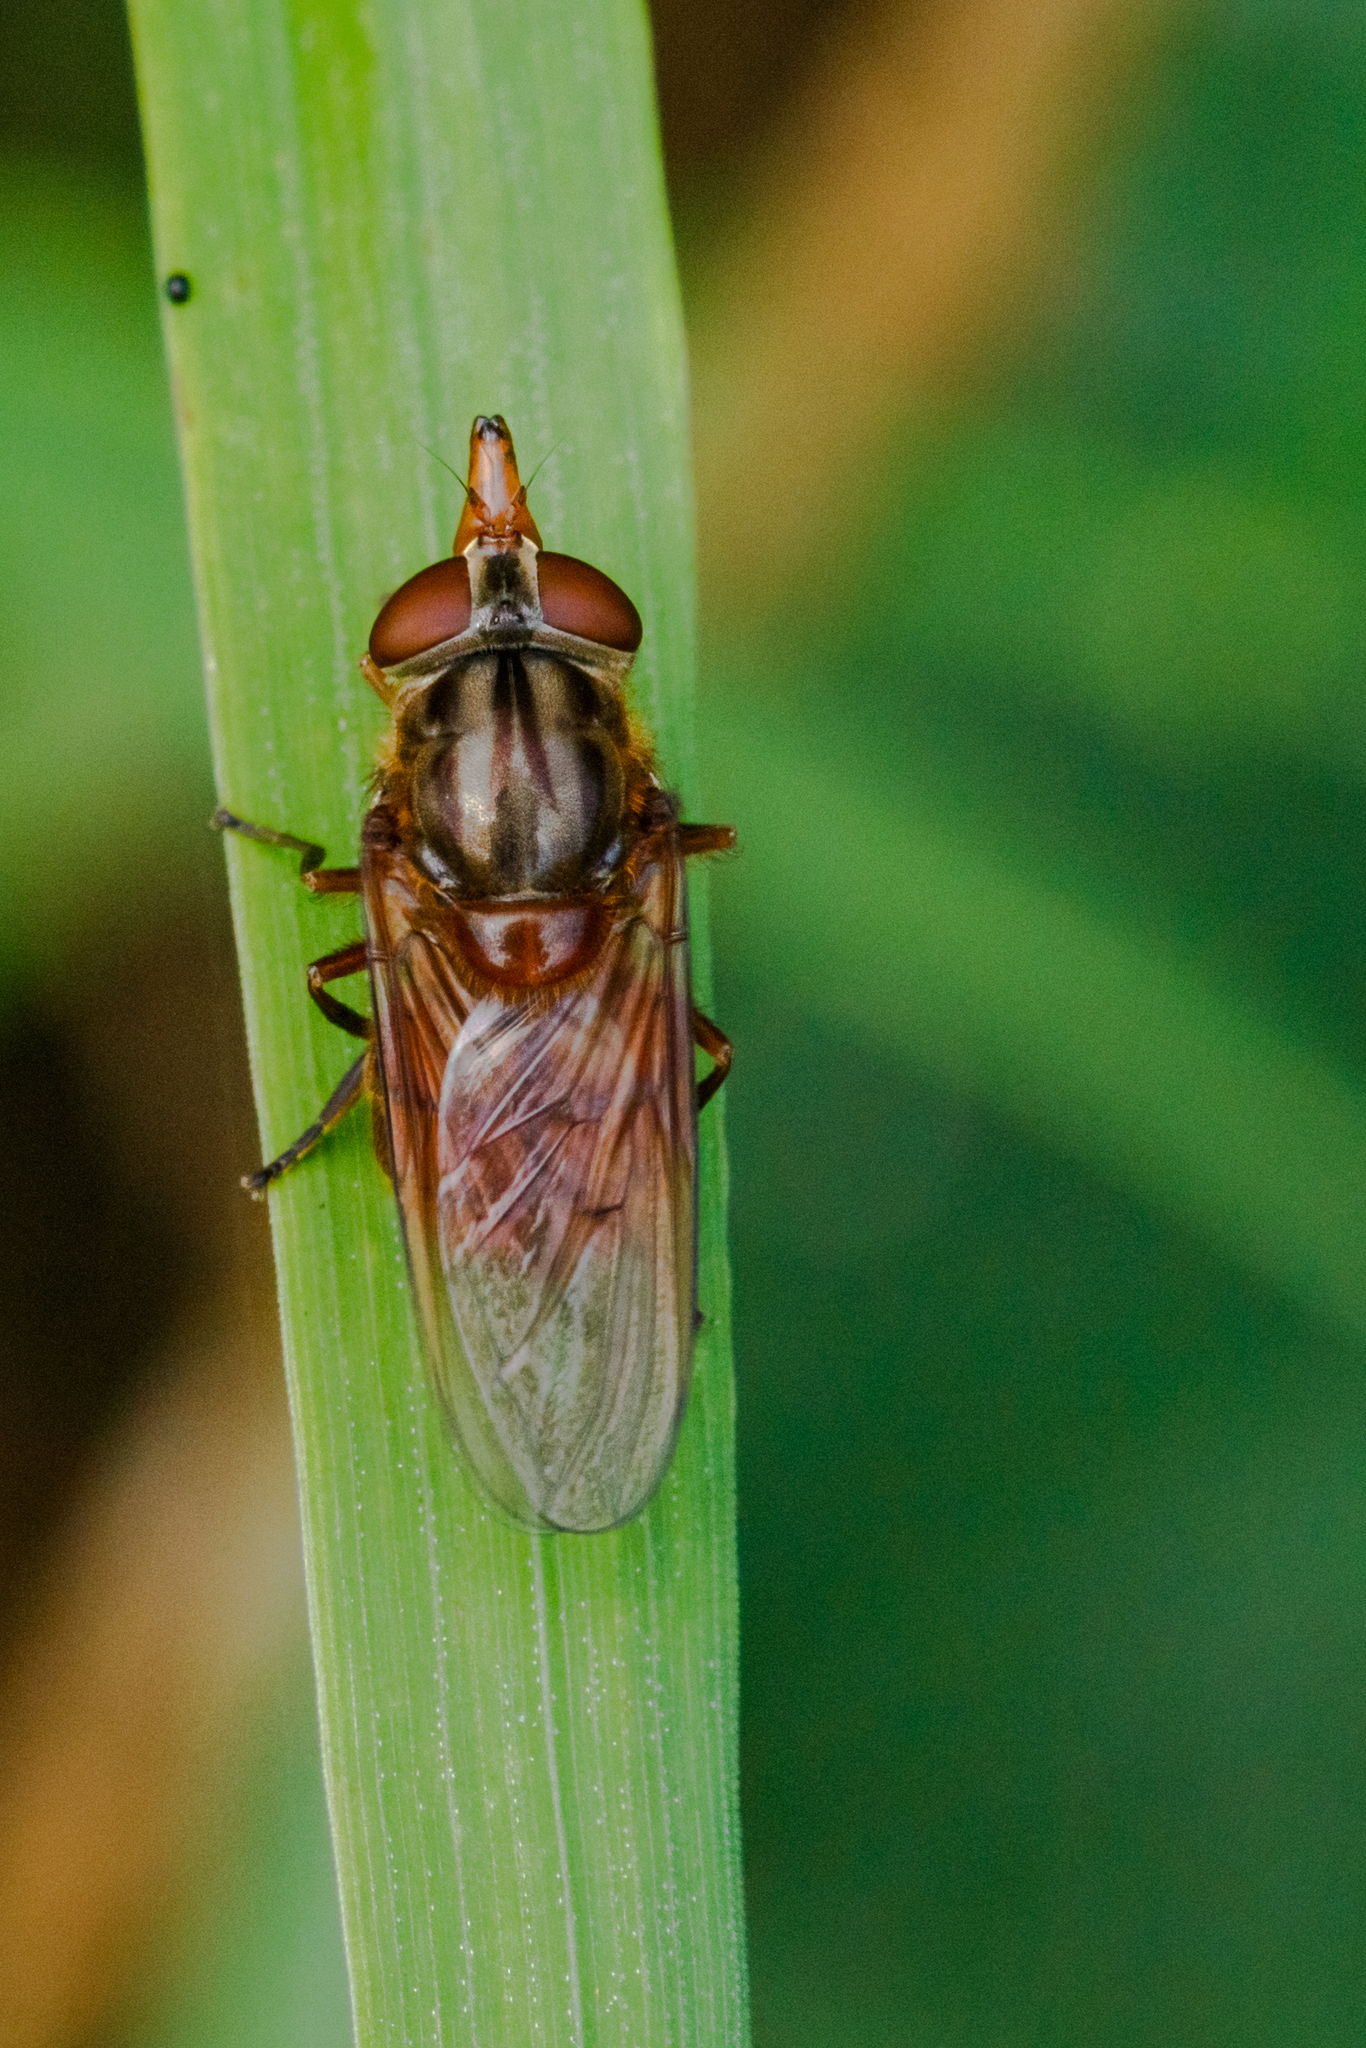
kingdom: Animalia
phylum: Arthropoda
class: Insecta
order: Diptera
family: Syrphidae
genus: Rhingia
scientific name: Rhingia campestris
